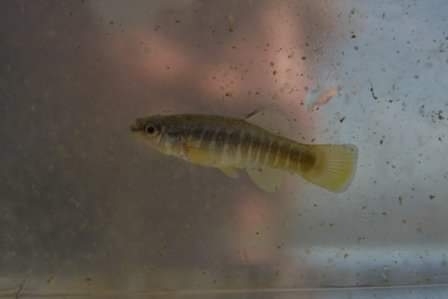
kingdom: Animalia
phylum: Chordata
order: Cyprinodontiformes
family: Cyprinodontidae
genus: Aphanius
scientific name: Aphanius fasciatus
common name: Mediterranean banded killifish
